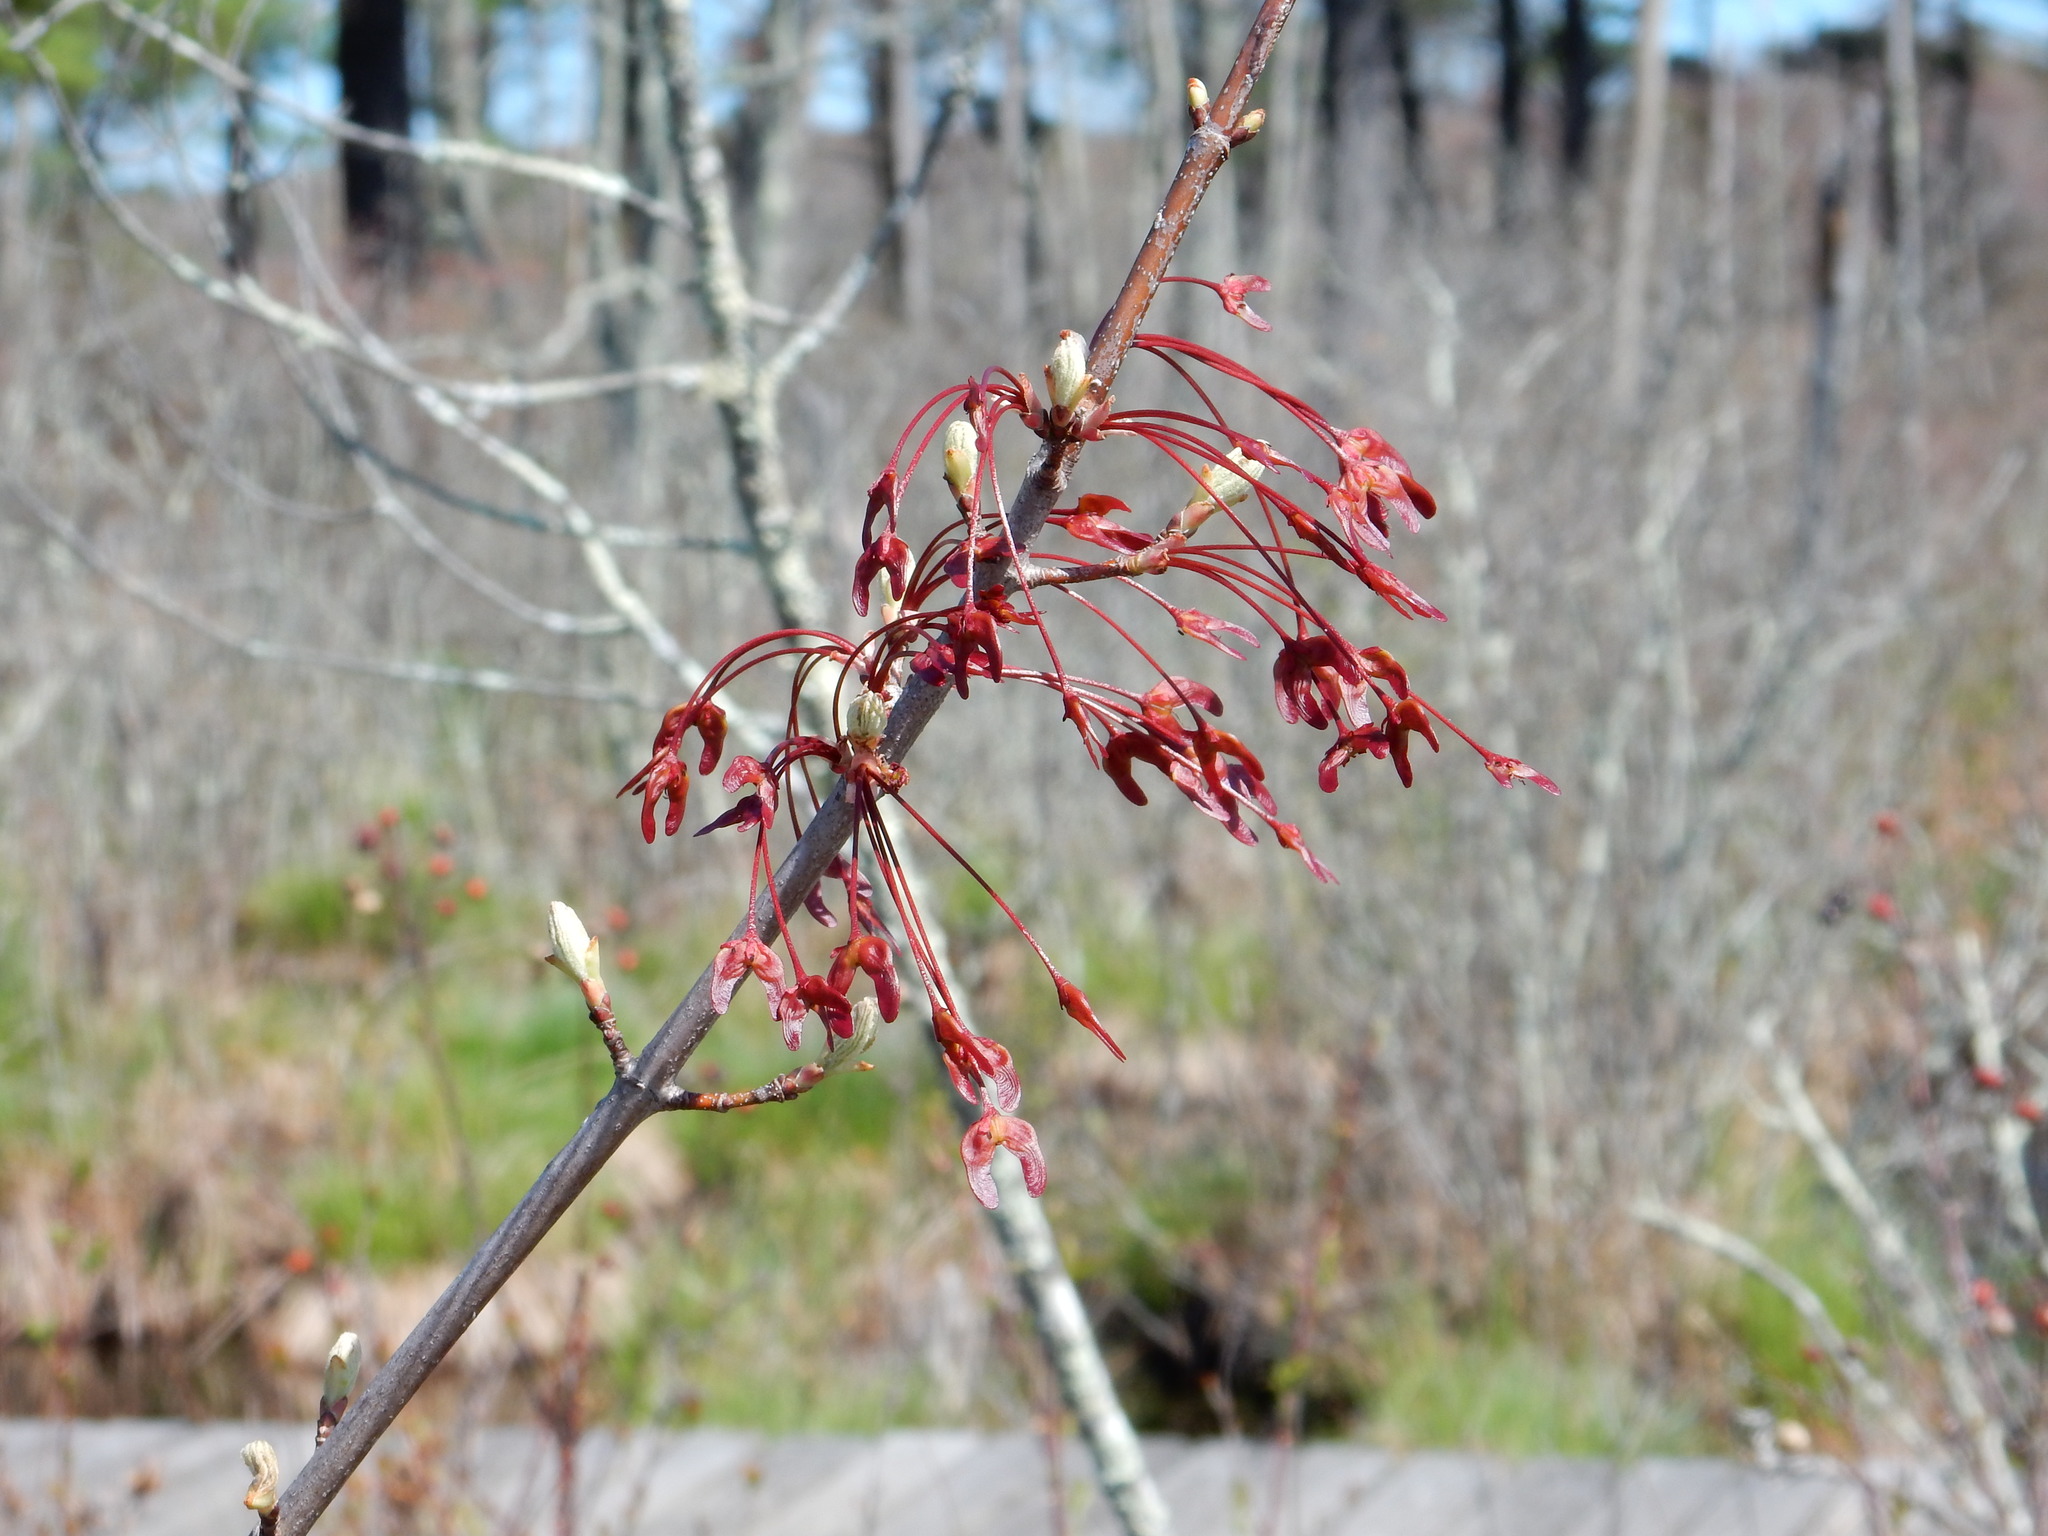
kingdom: Plantae
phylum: Tracheophyta
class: Magnoliopsida
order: Sapindales
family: Sapindaceae
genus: Acer
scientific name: Acer rubrum
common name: Red maple
